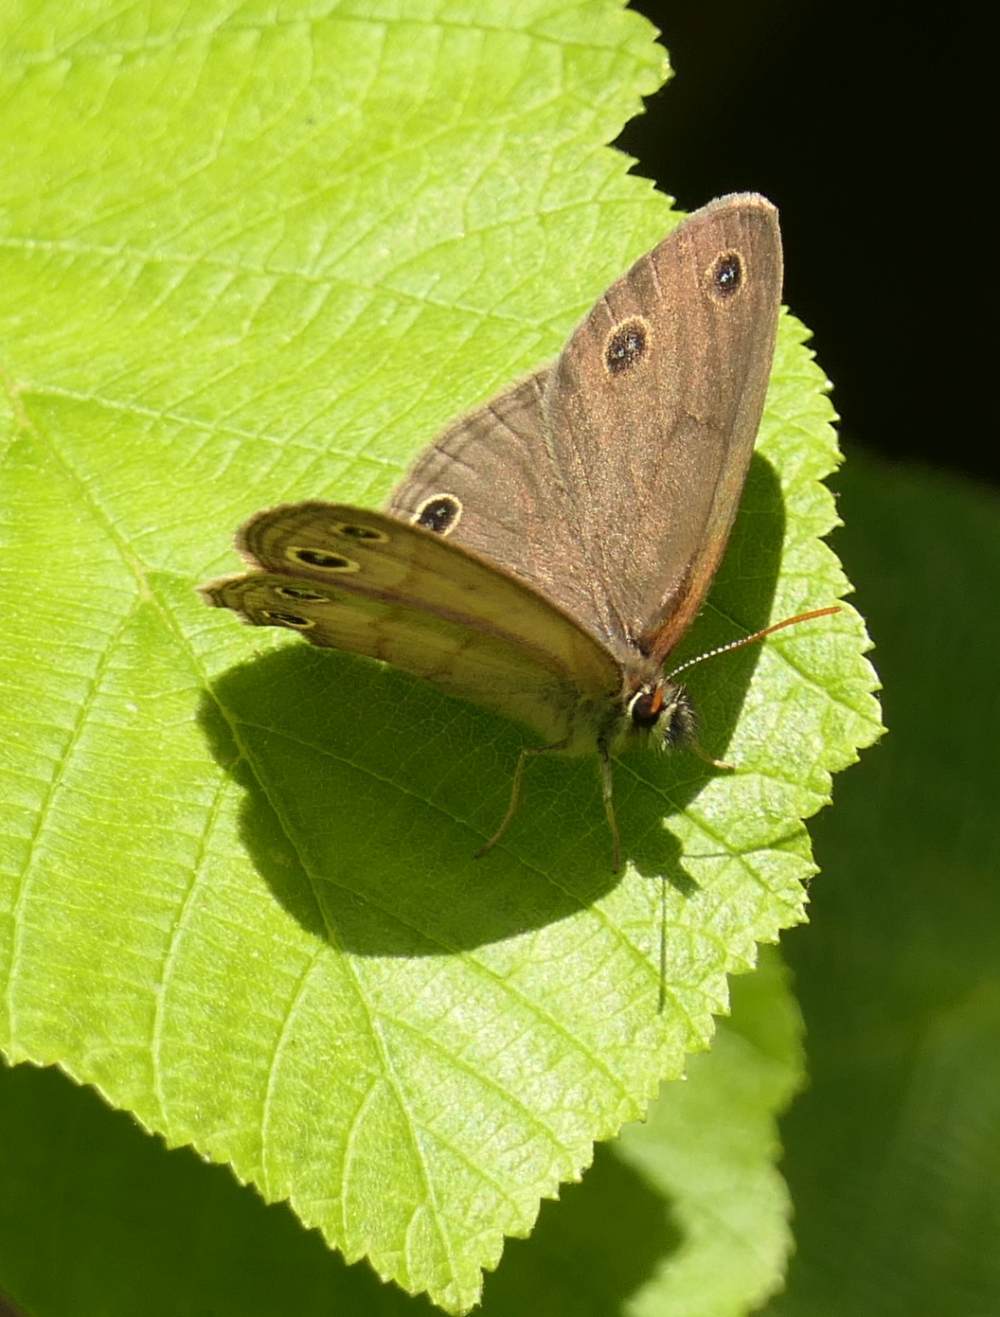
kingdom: Animalia
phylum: Arthropoda
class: Insecta
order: Lepidoptera
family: Nymphalidae
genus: Euptychia
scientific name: Euptychia cymela
